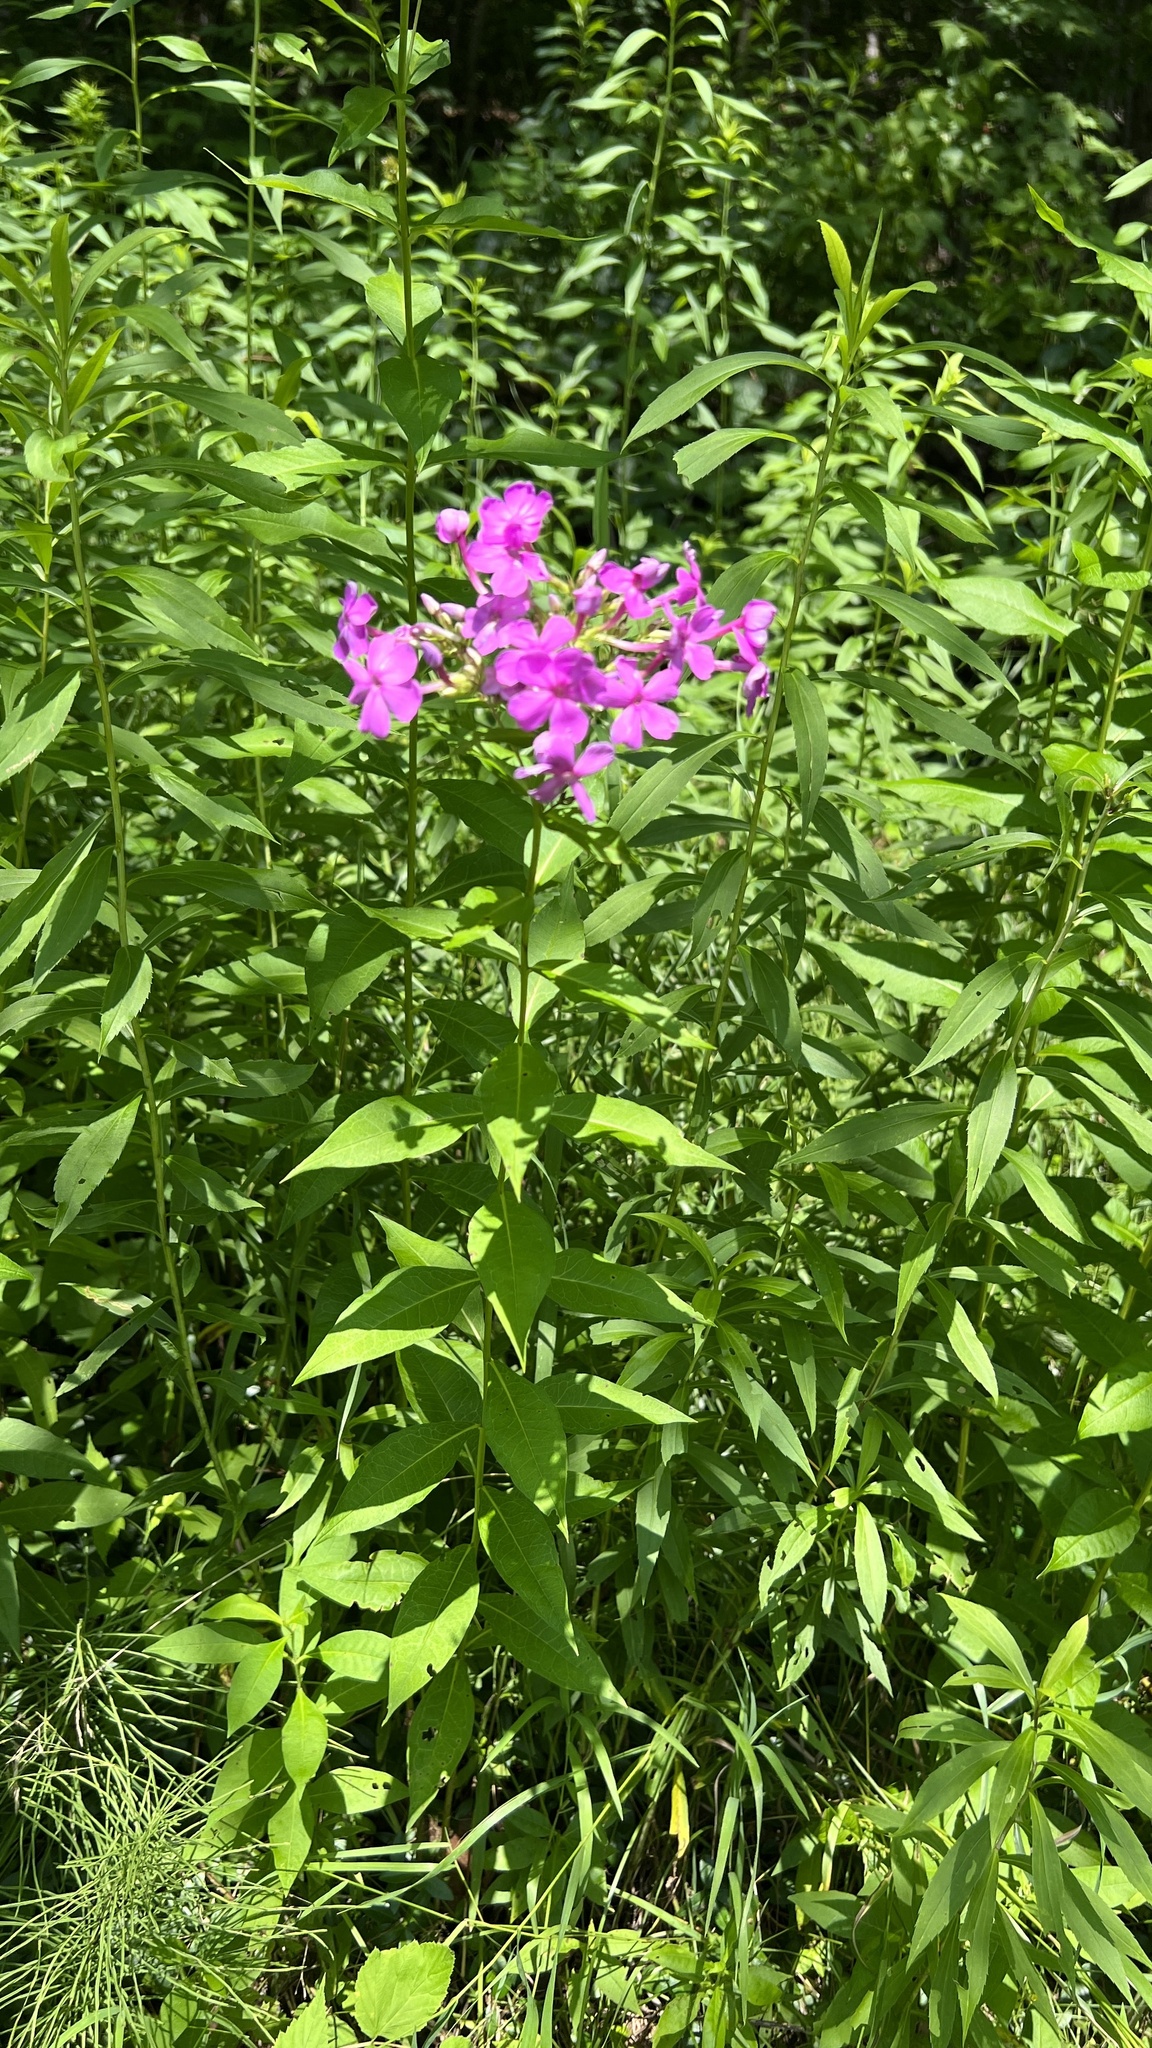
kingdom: Plantae
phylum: Tracheophyta
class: Magnoliopsida
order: Ericales
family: Polemoniaceae
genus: Phlox
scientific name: Phlox paniculata
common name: Fall phlox
